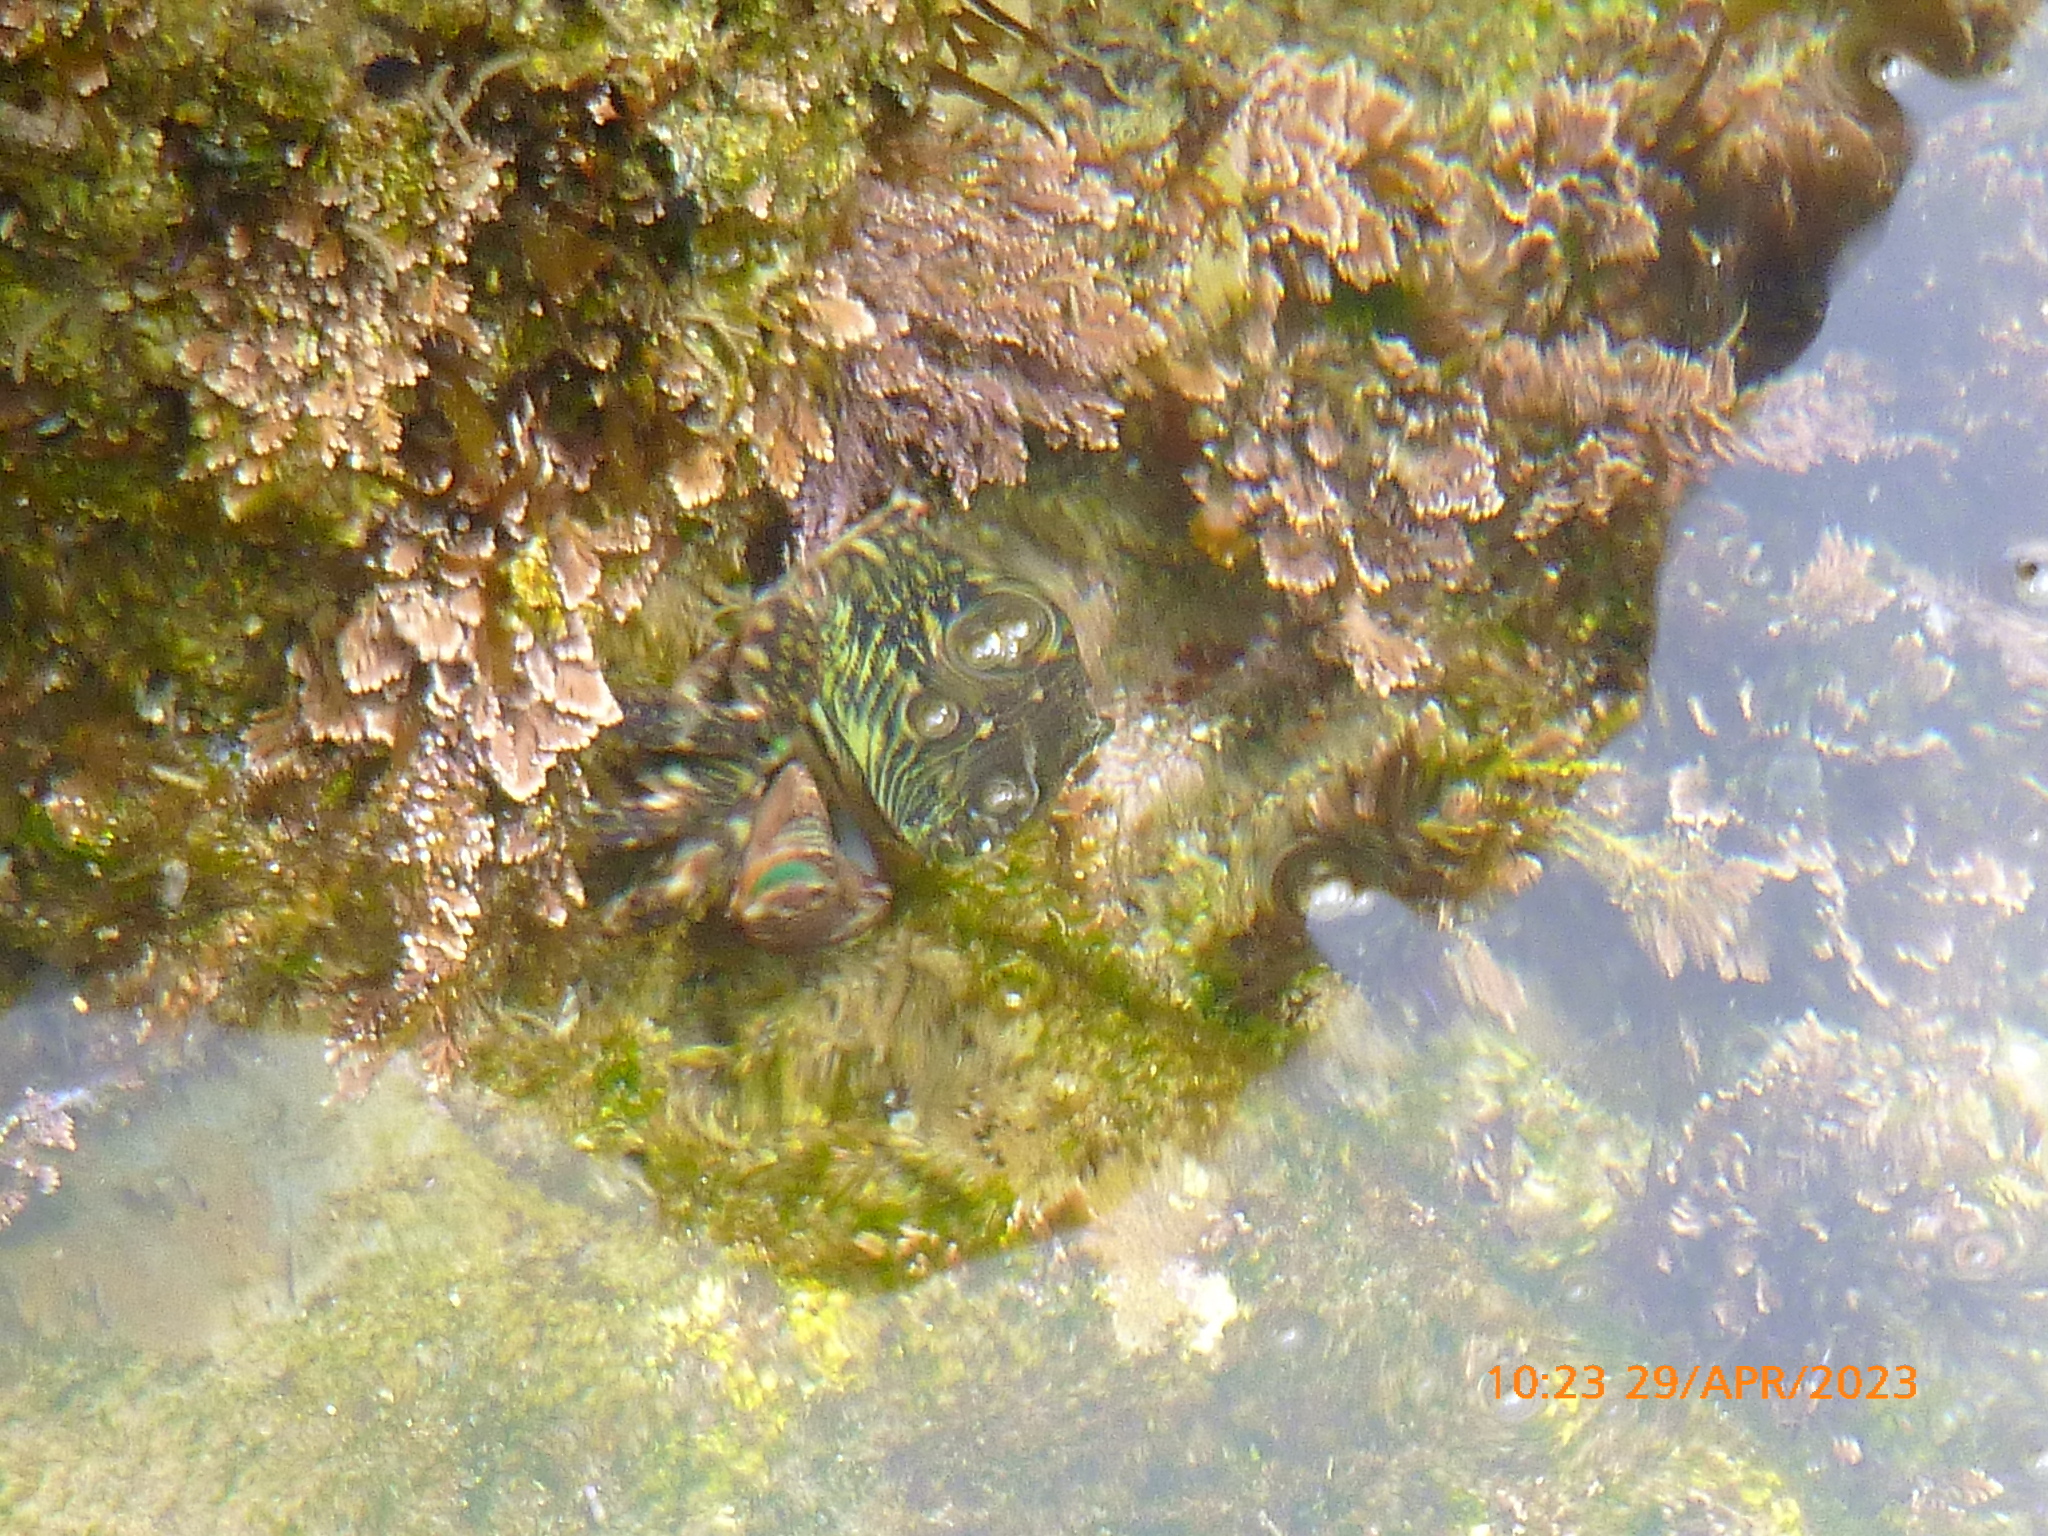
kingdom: Animalia
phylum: Arthropoda
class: Malacostraca
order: Decapoda
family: Grapsidae
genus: Pachygrapsus
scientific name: Pachygrapsus crassipes
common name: Striped shore crab
